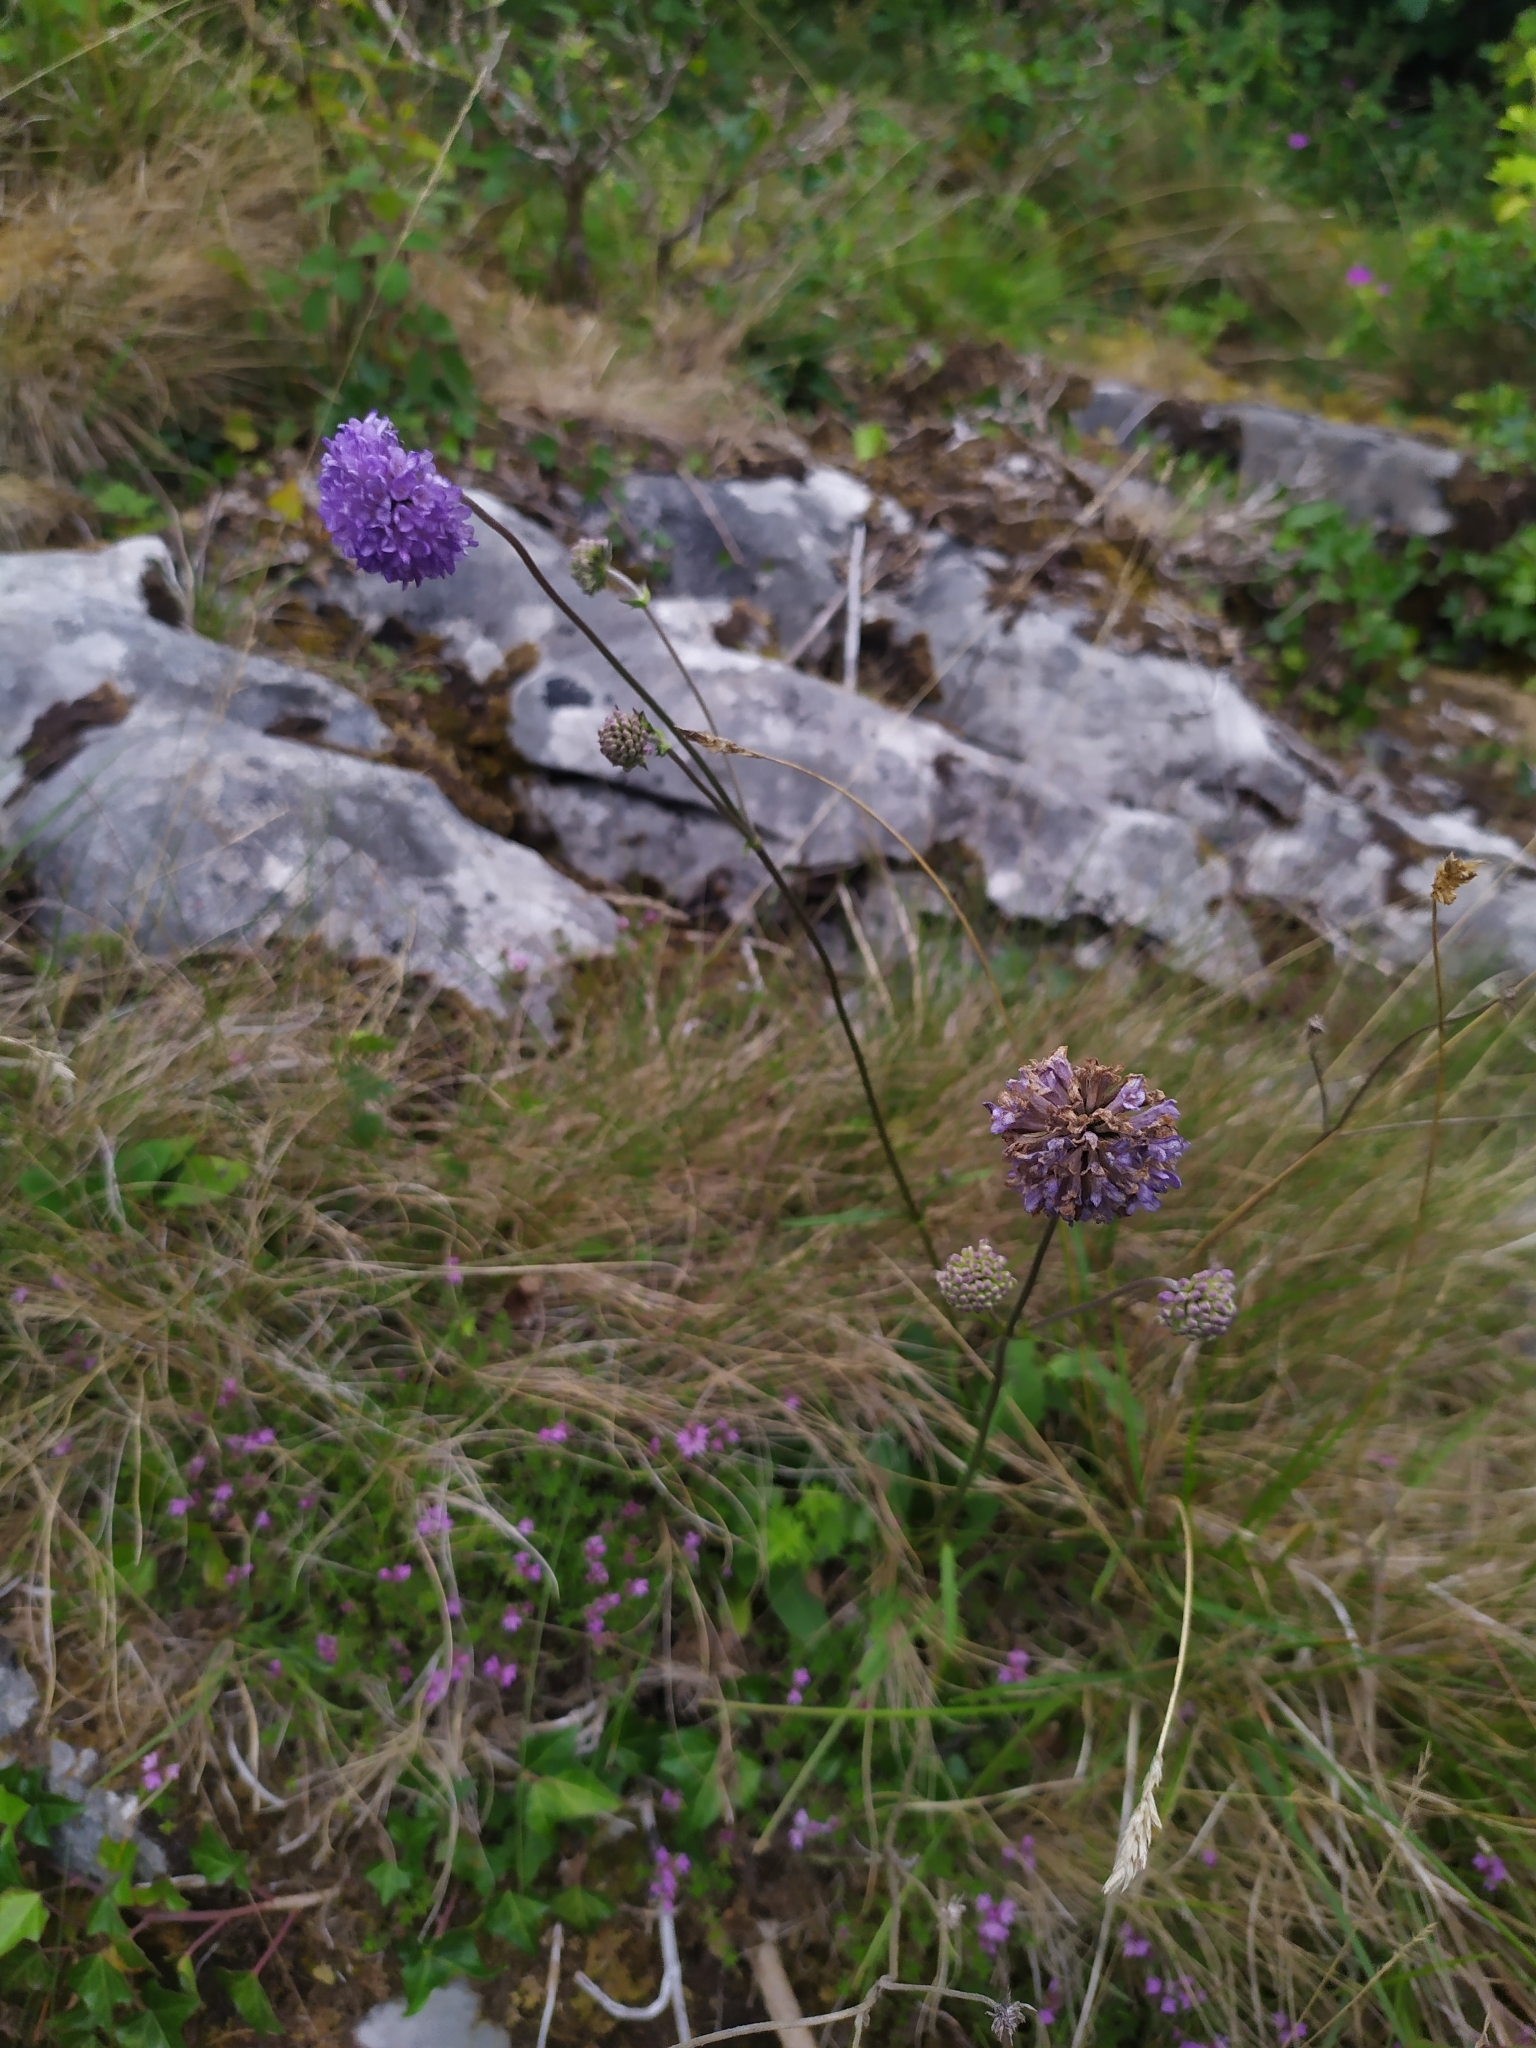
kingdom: Plantae
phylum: Tracheophyta
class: Magnoliopsida
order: Dipsacales
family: Caprifoliaceae
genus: Succisa
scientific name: Succisa pratensis
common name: Devil's-bit
